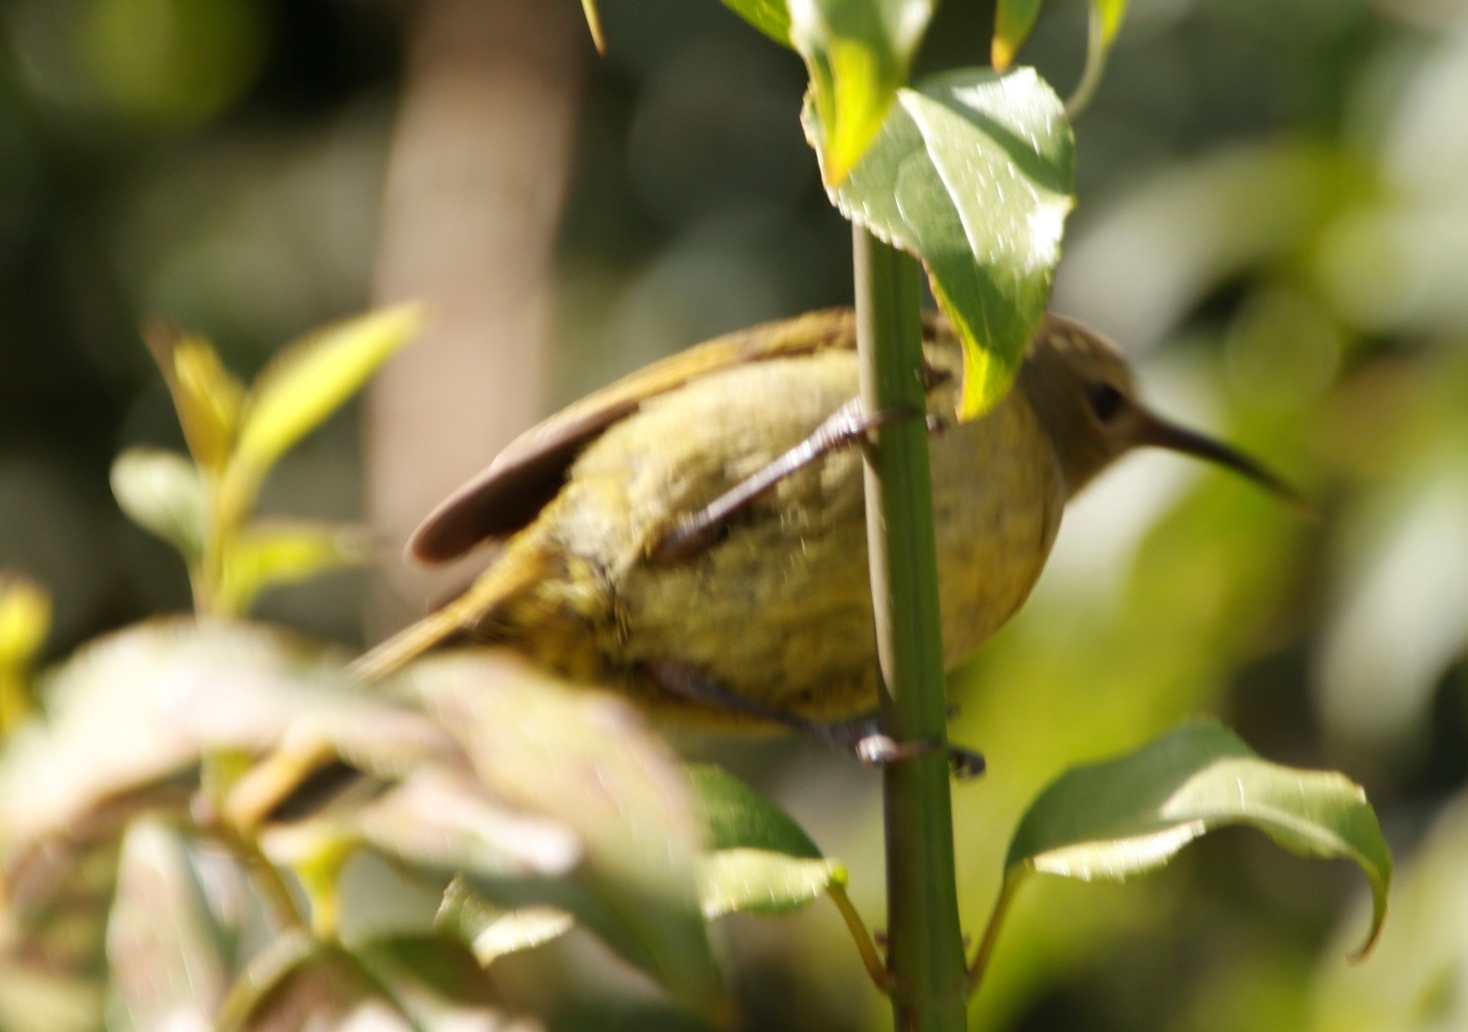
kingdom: Animalia
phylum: Chordata
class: Aves
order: Passeriformes
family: Nectariniidae
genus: Anthobaphes
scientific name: Anthobaphes violacea
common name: Orange-breasted sunbird
